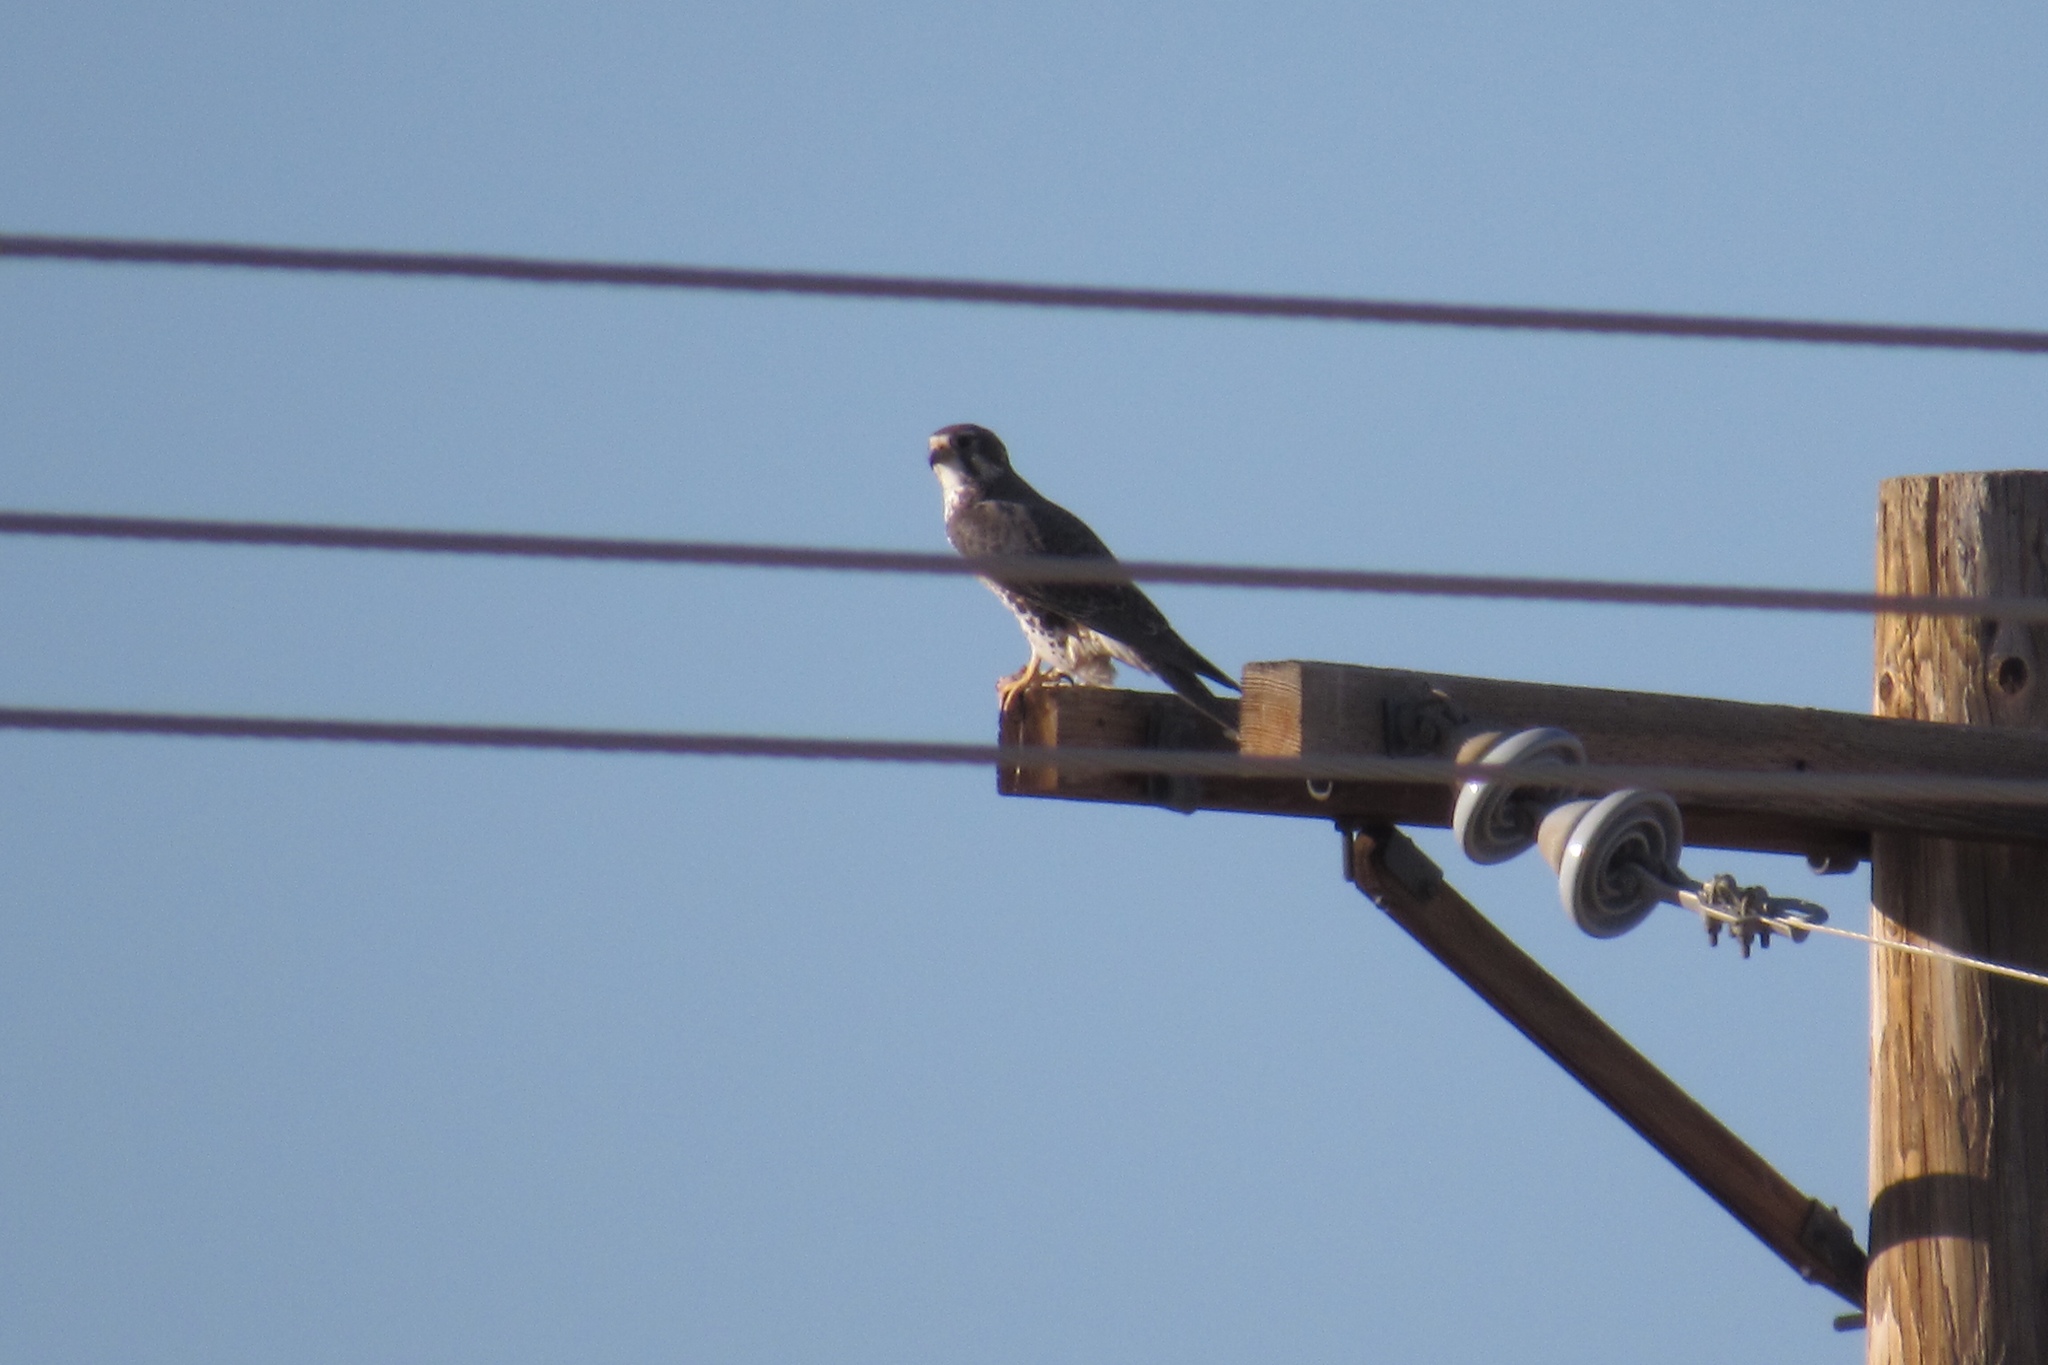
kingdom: Animalia
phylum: Chordata
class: Aves
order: Falconiformes
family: Falconidae
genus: Falco
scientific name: Falco mexicanus
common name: Prairie falcon
